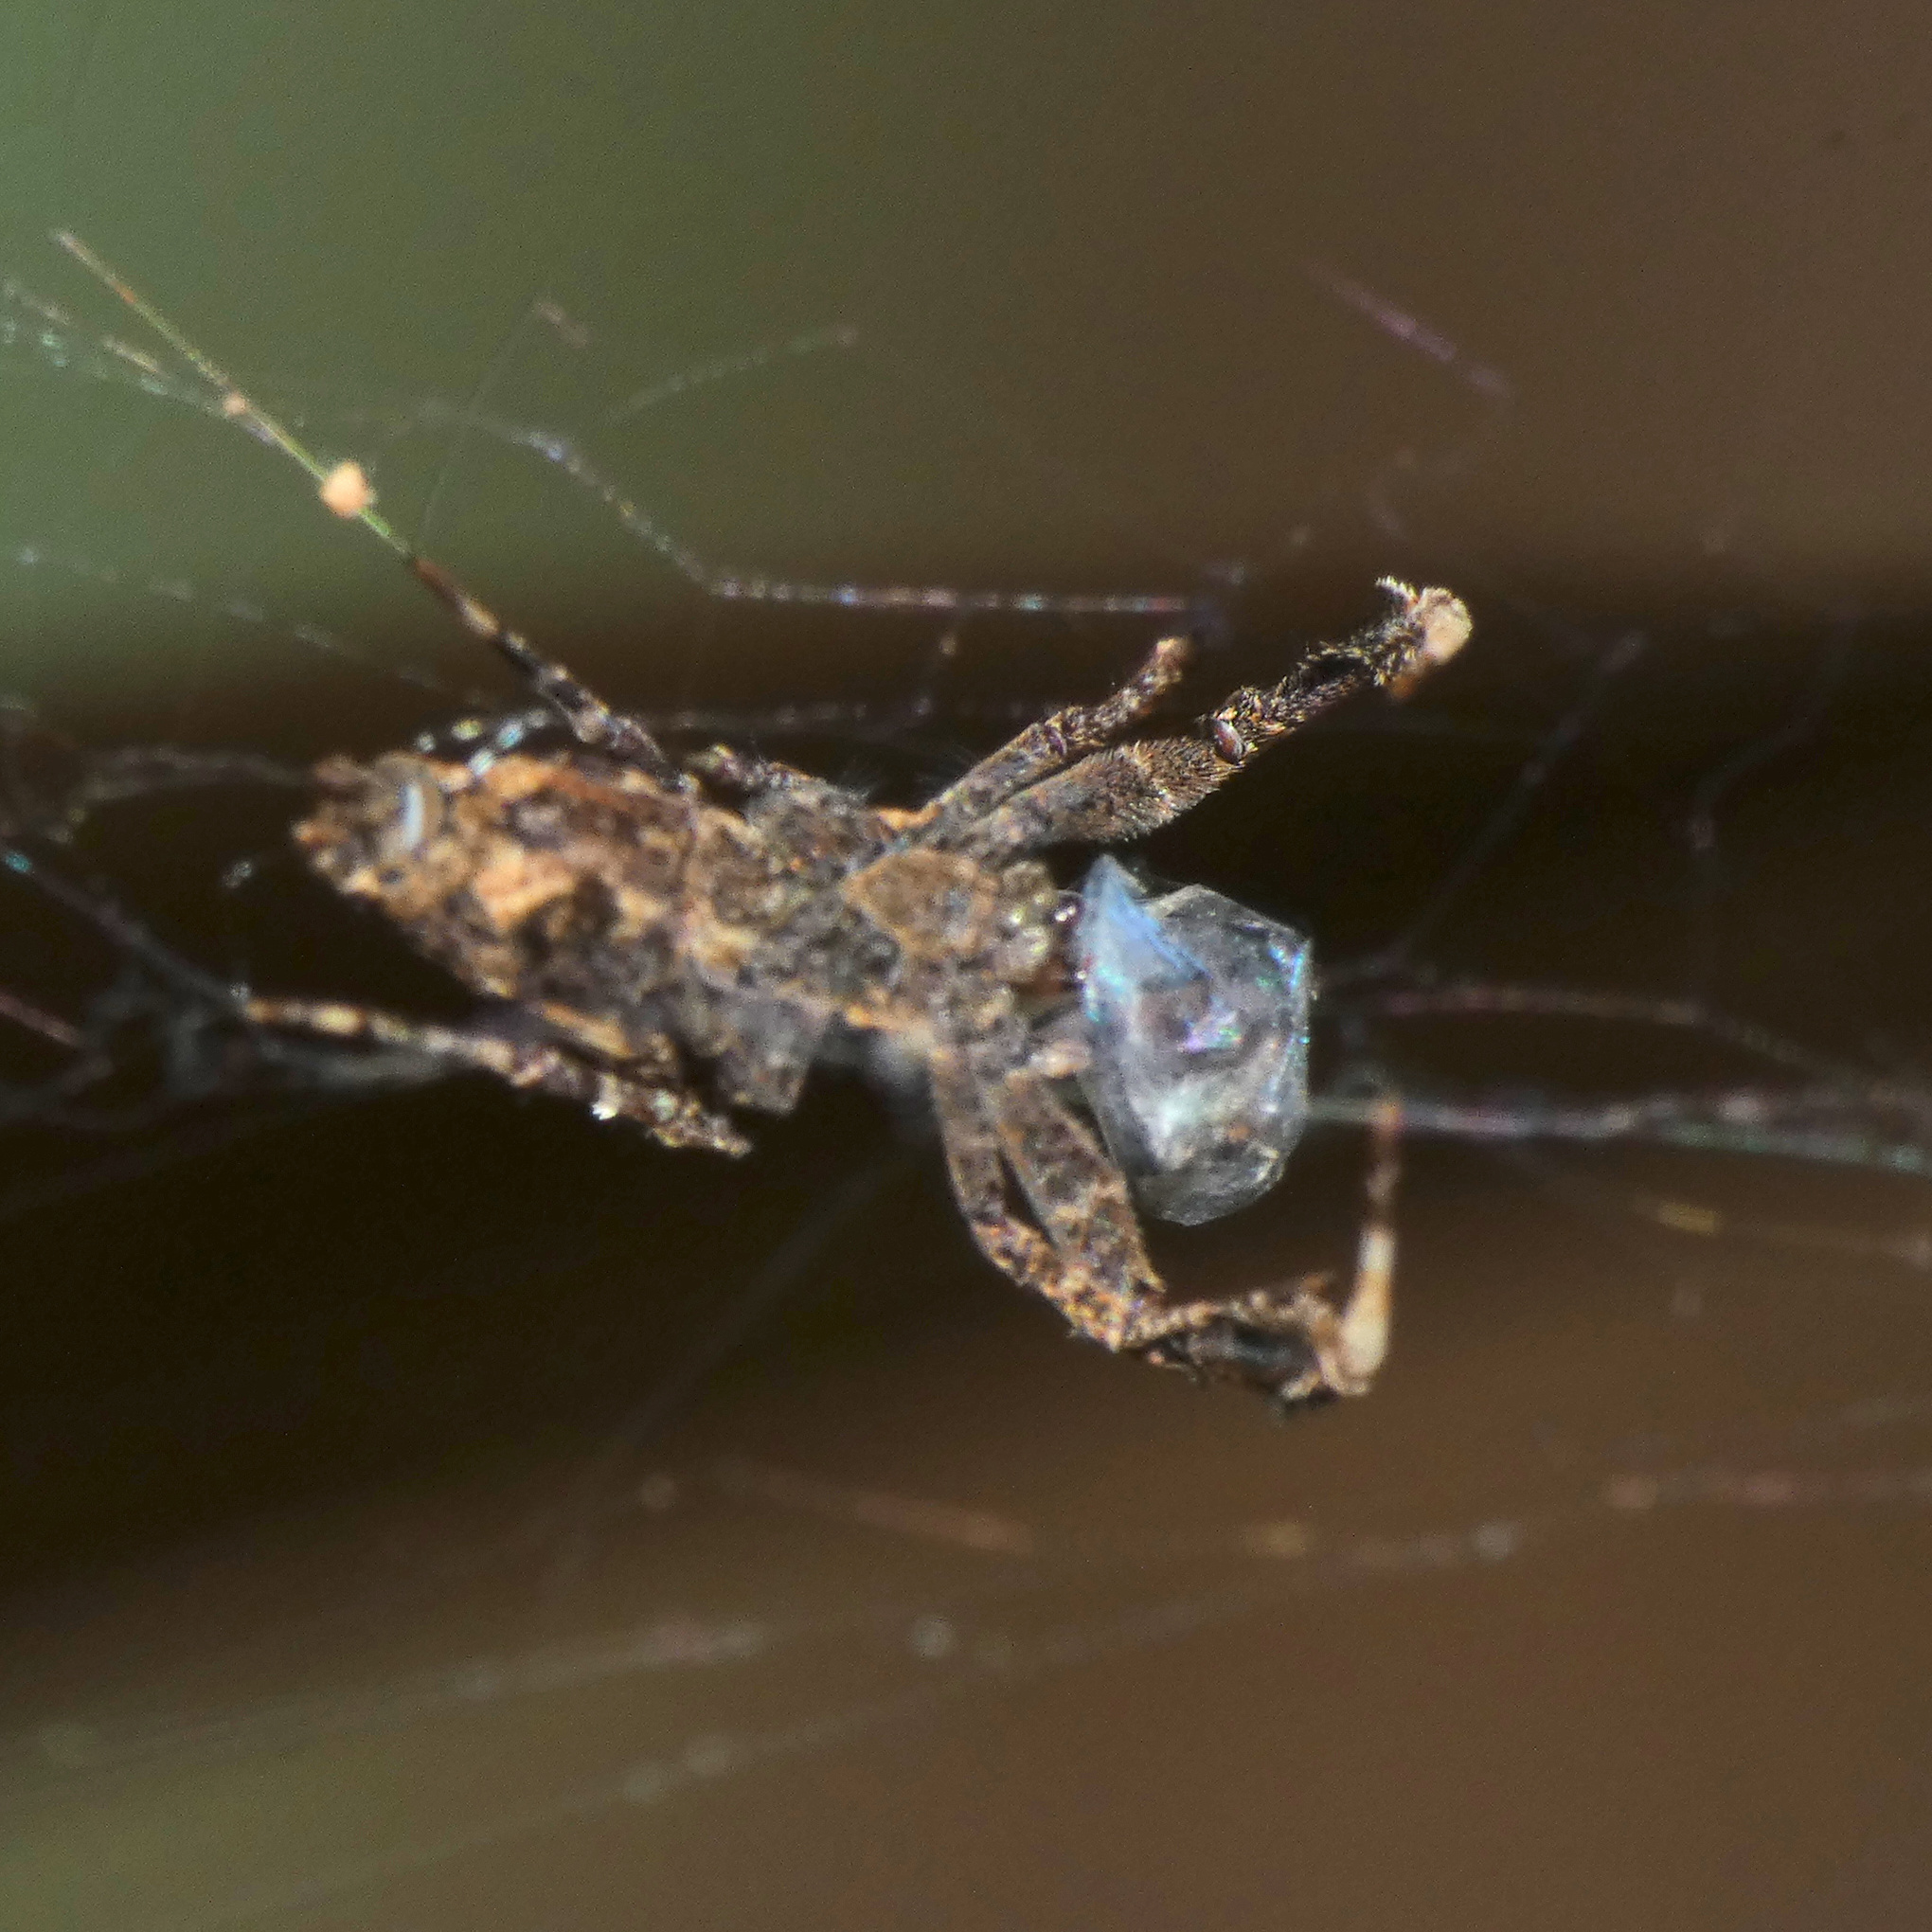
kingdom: Animalia
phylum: Arthropoda
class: Arachnida
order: Araneae
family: Uloboridae
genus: Uloborus
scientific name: Uloborus plumipes
